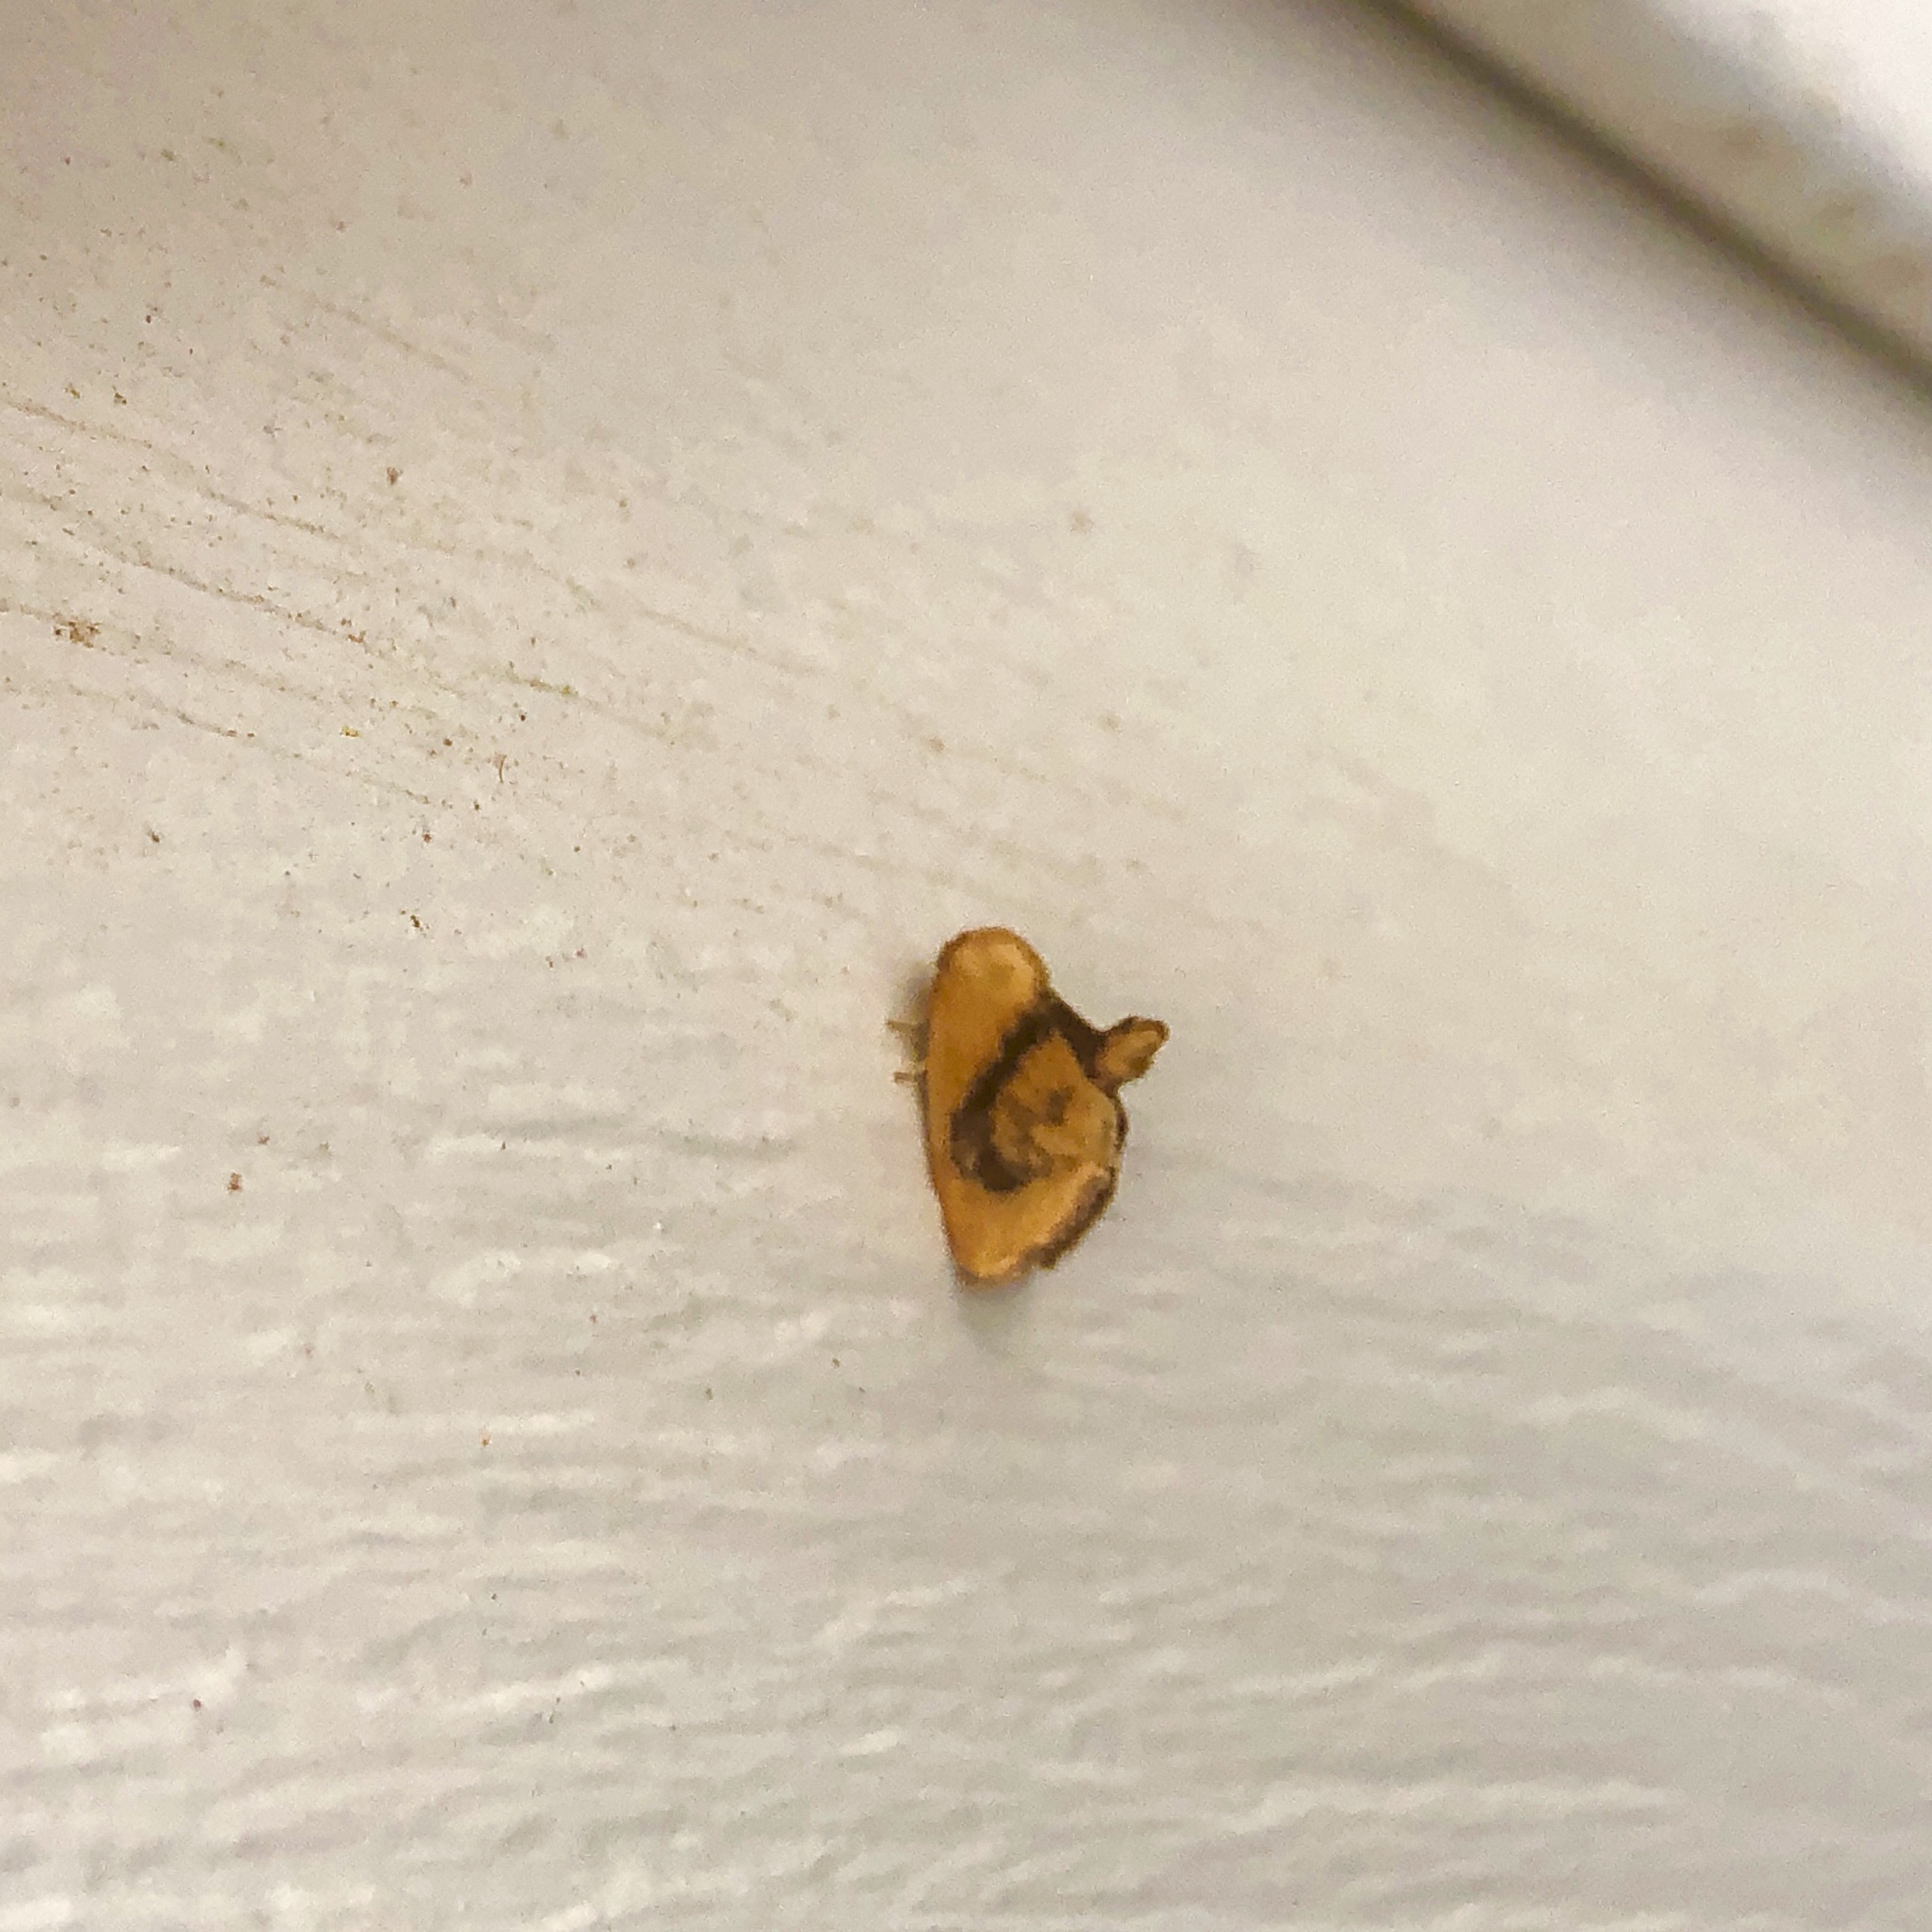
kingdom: Animalia
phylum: Arthropoda
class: Insecta
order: Lepidoptera
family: Limacodidae
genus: Tortricidia
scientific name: Tortricidia flexuosa
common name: Abbreviated button slug moth
